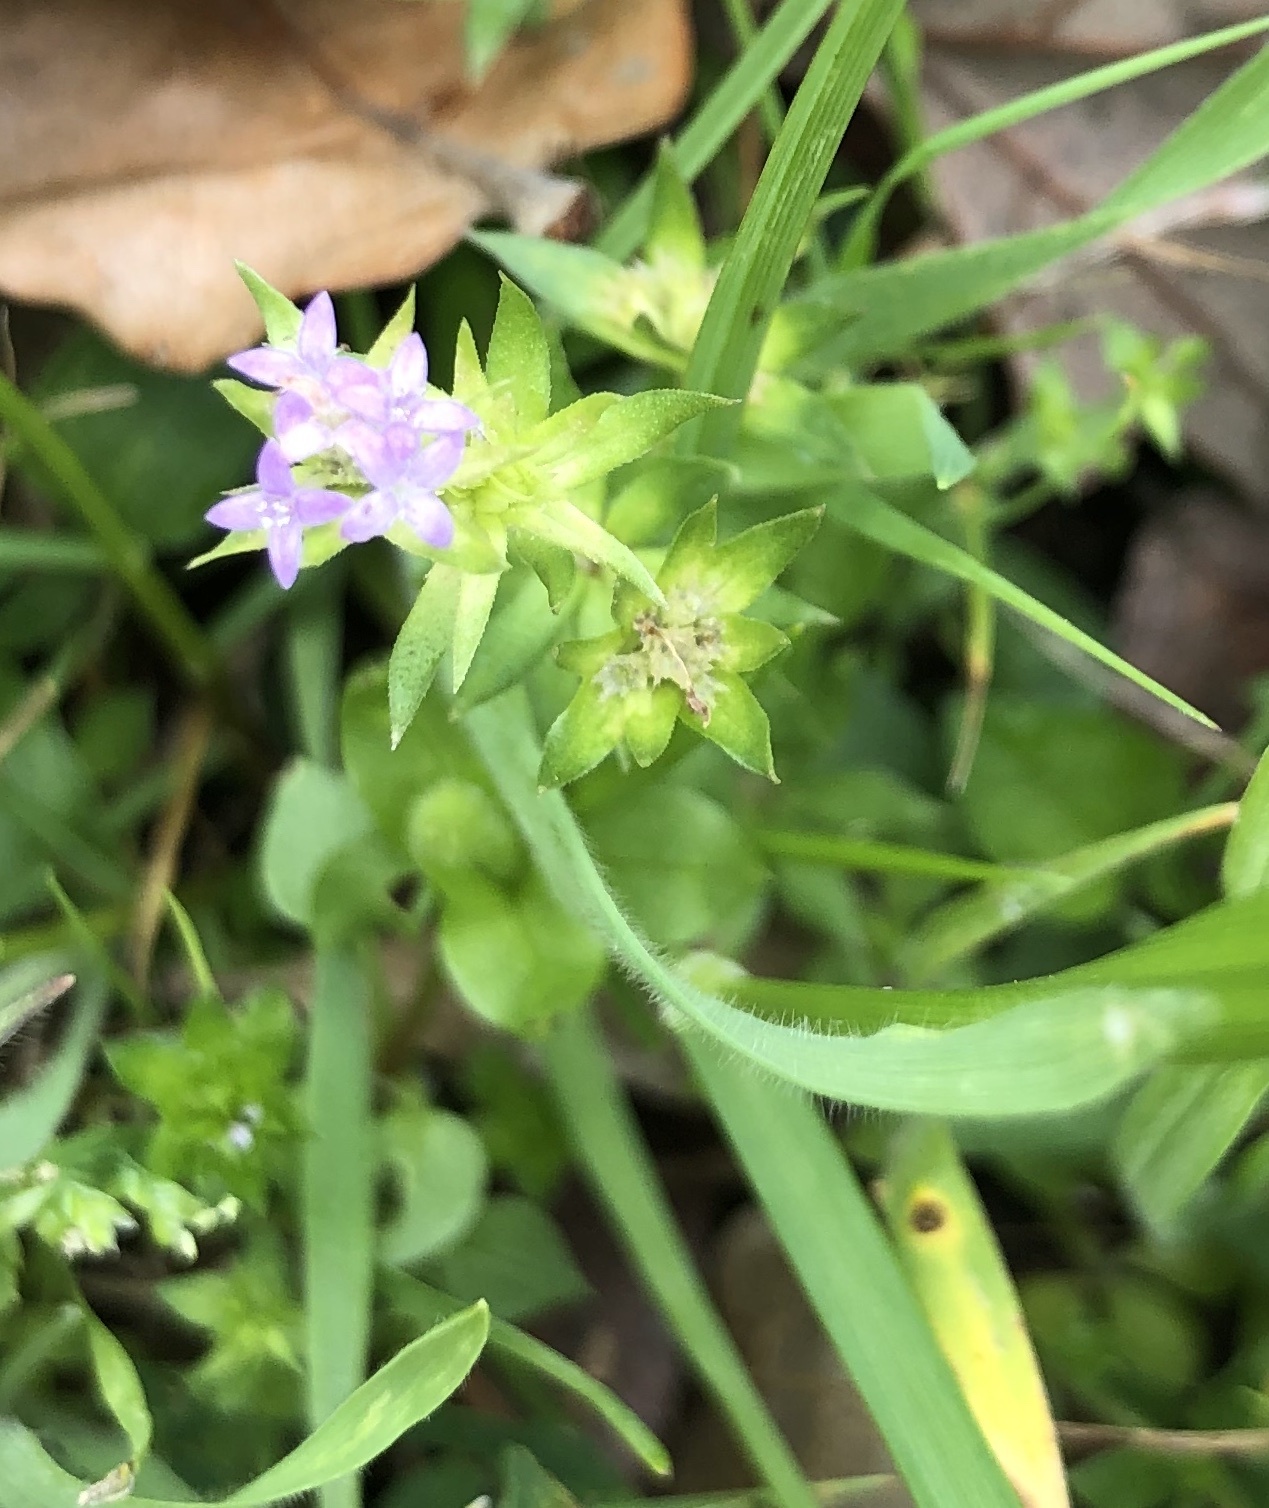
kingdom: Plantae
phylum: Tracheophyta
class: Magnoliopsida
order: Gentianales
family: Rubiaceae
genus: Sherardia
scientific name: Sherardia arvensis
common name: Field madder
